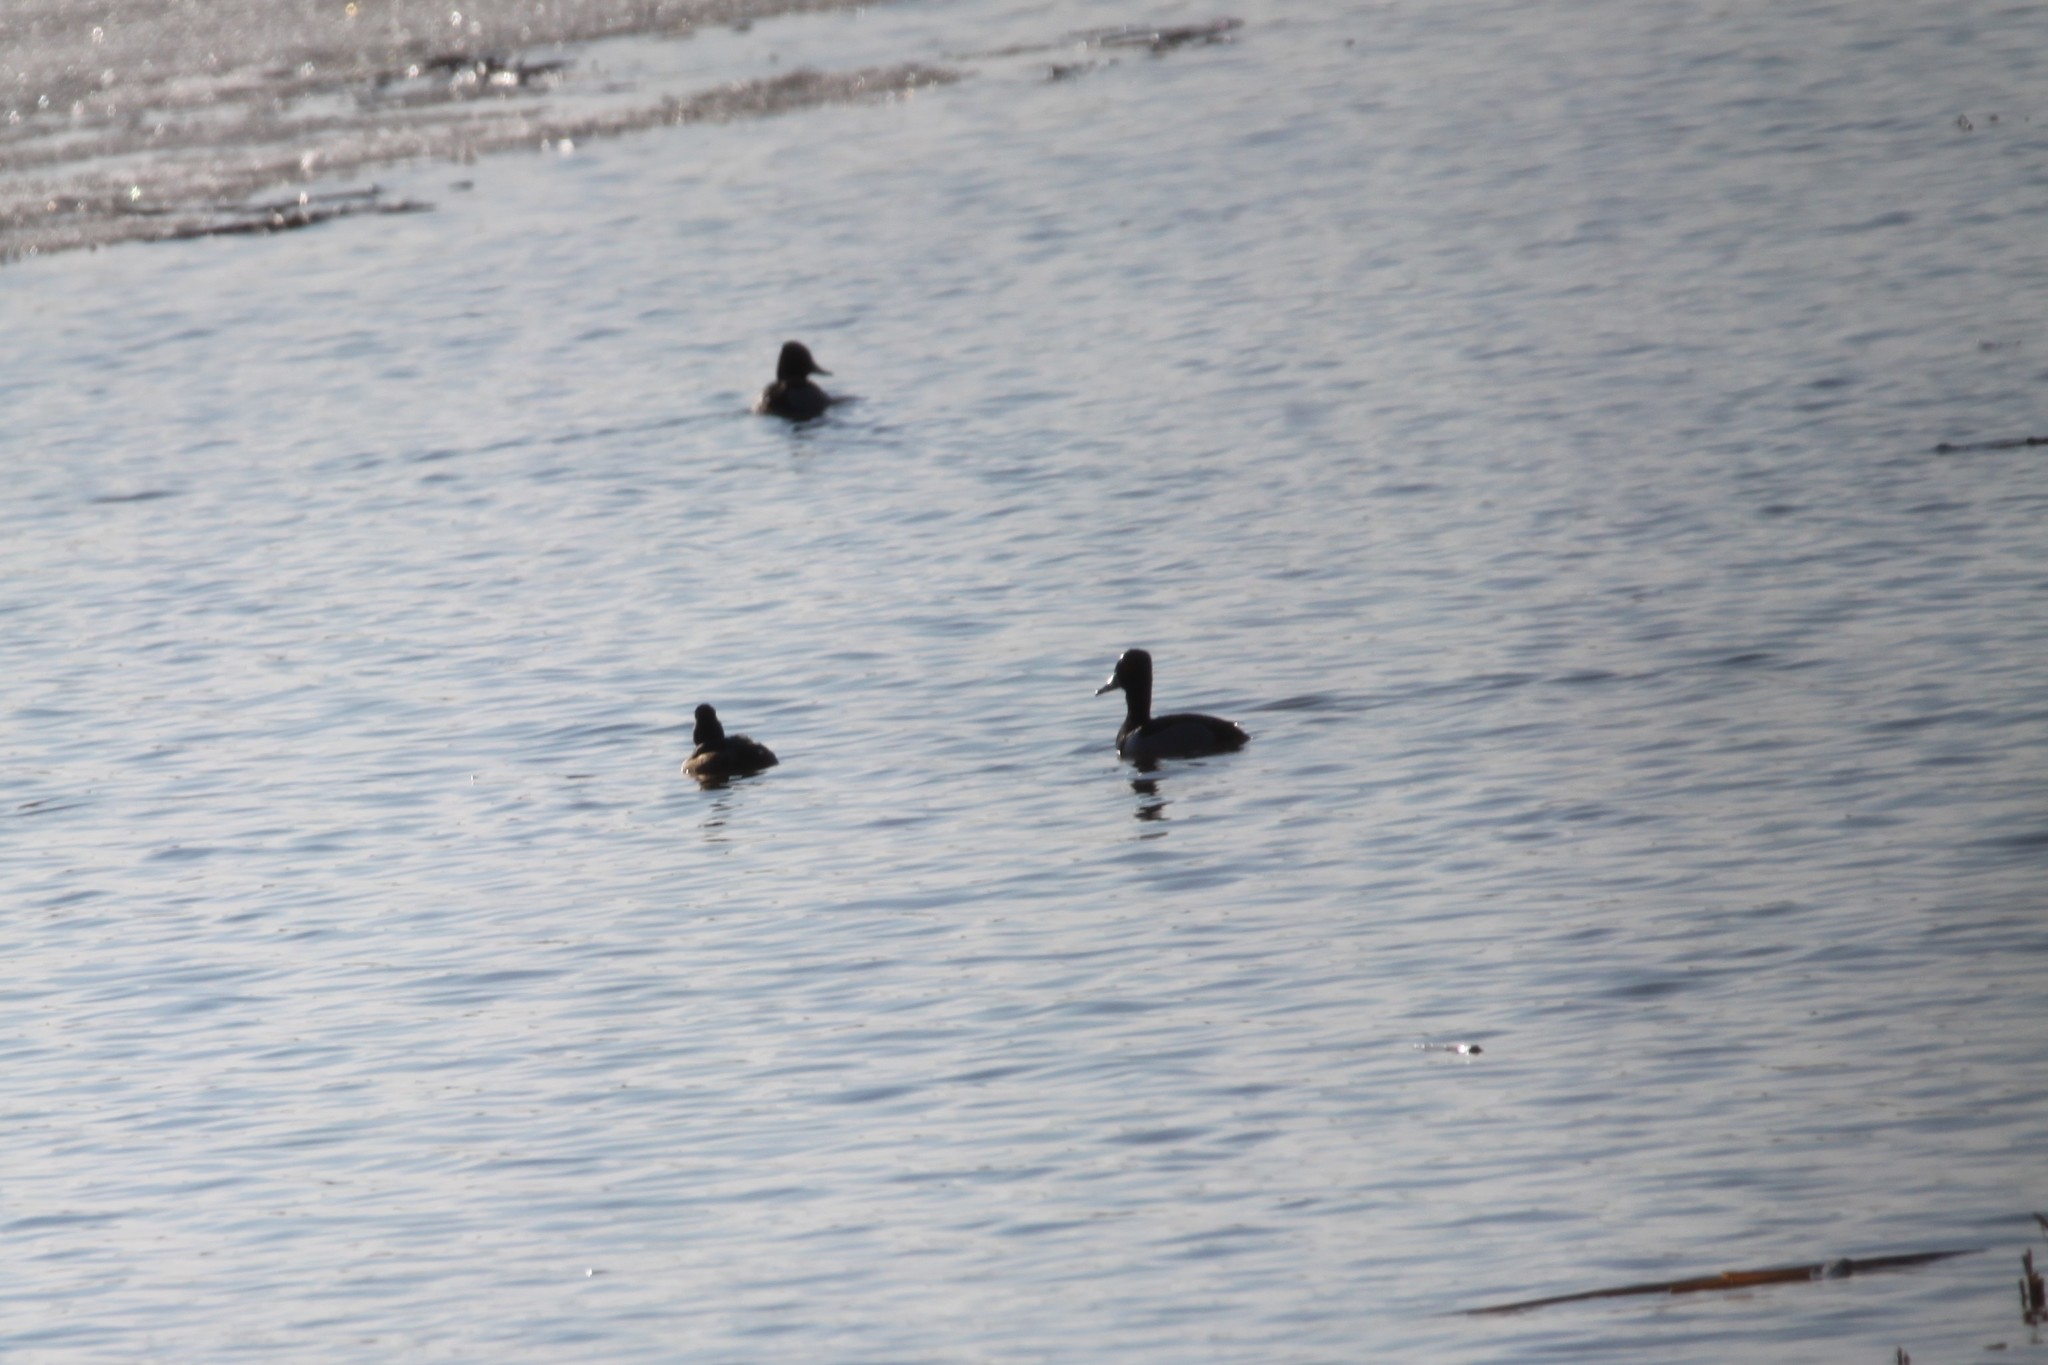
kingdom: Animalia
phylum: Chordata
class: Aves
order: Anseriformes
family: Anatidae
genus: Aythya
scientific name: Aythya collaris
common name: Ring-necked duck
